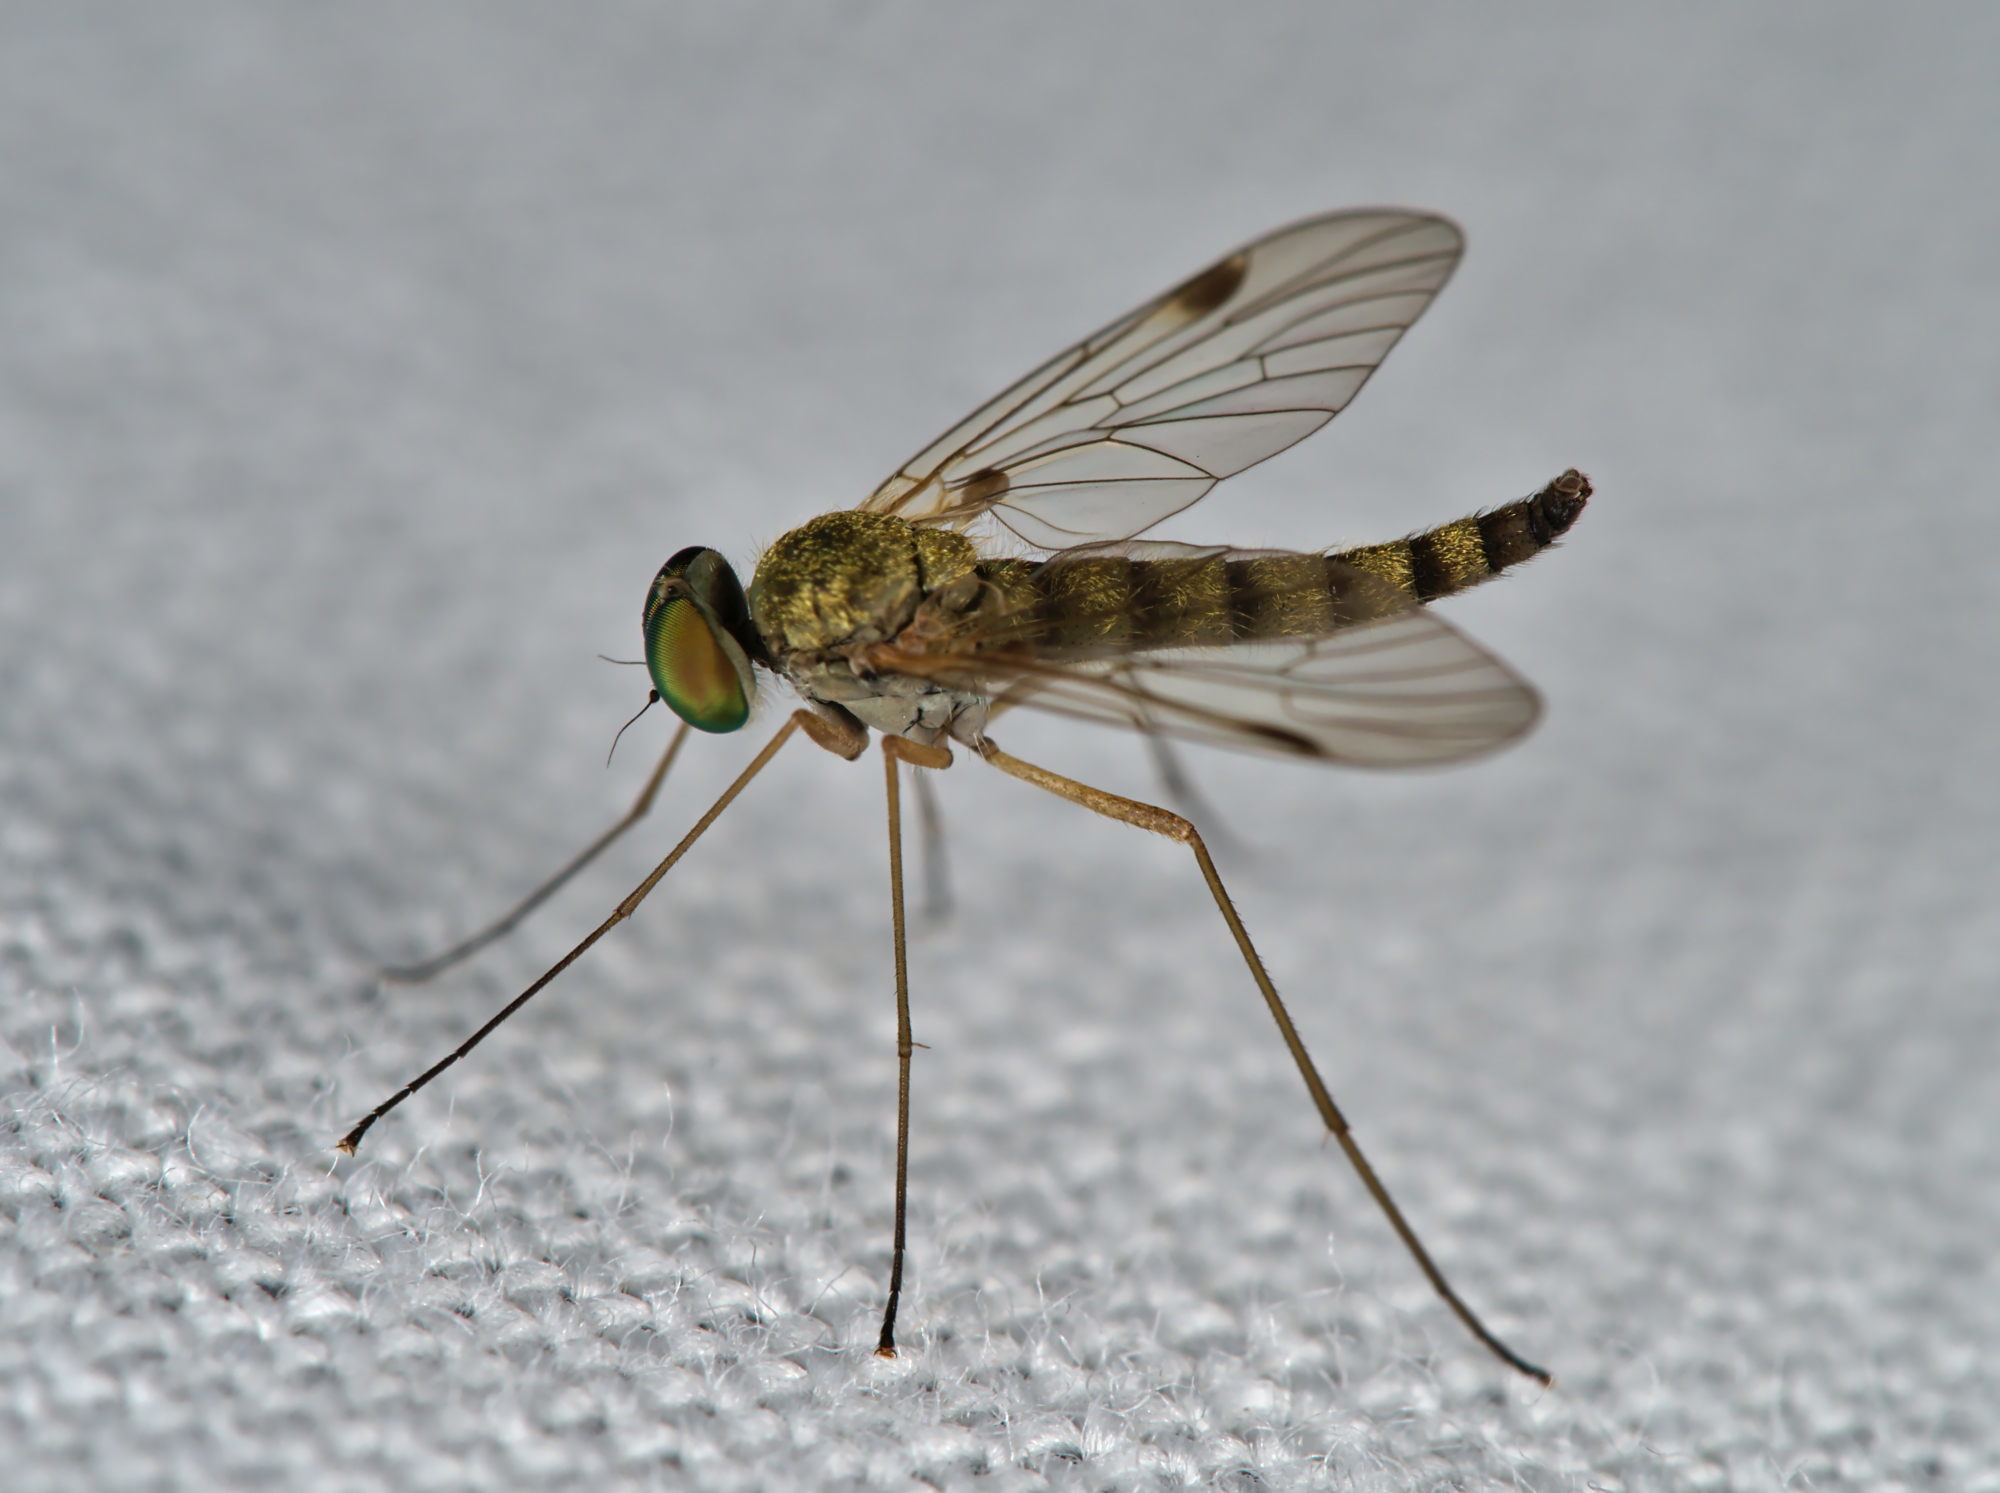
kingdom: Animalia
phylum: Arthropoda
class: Insecta
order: Diptera
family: Rhagionidae
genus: Chrysopilus
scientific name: Chrysopilus asiliformis
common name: Little snipefly
